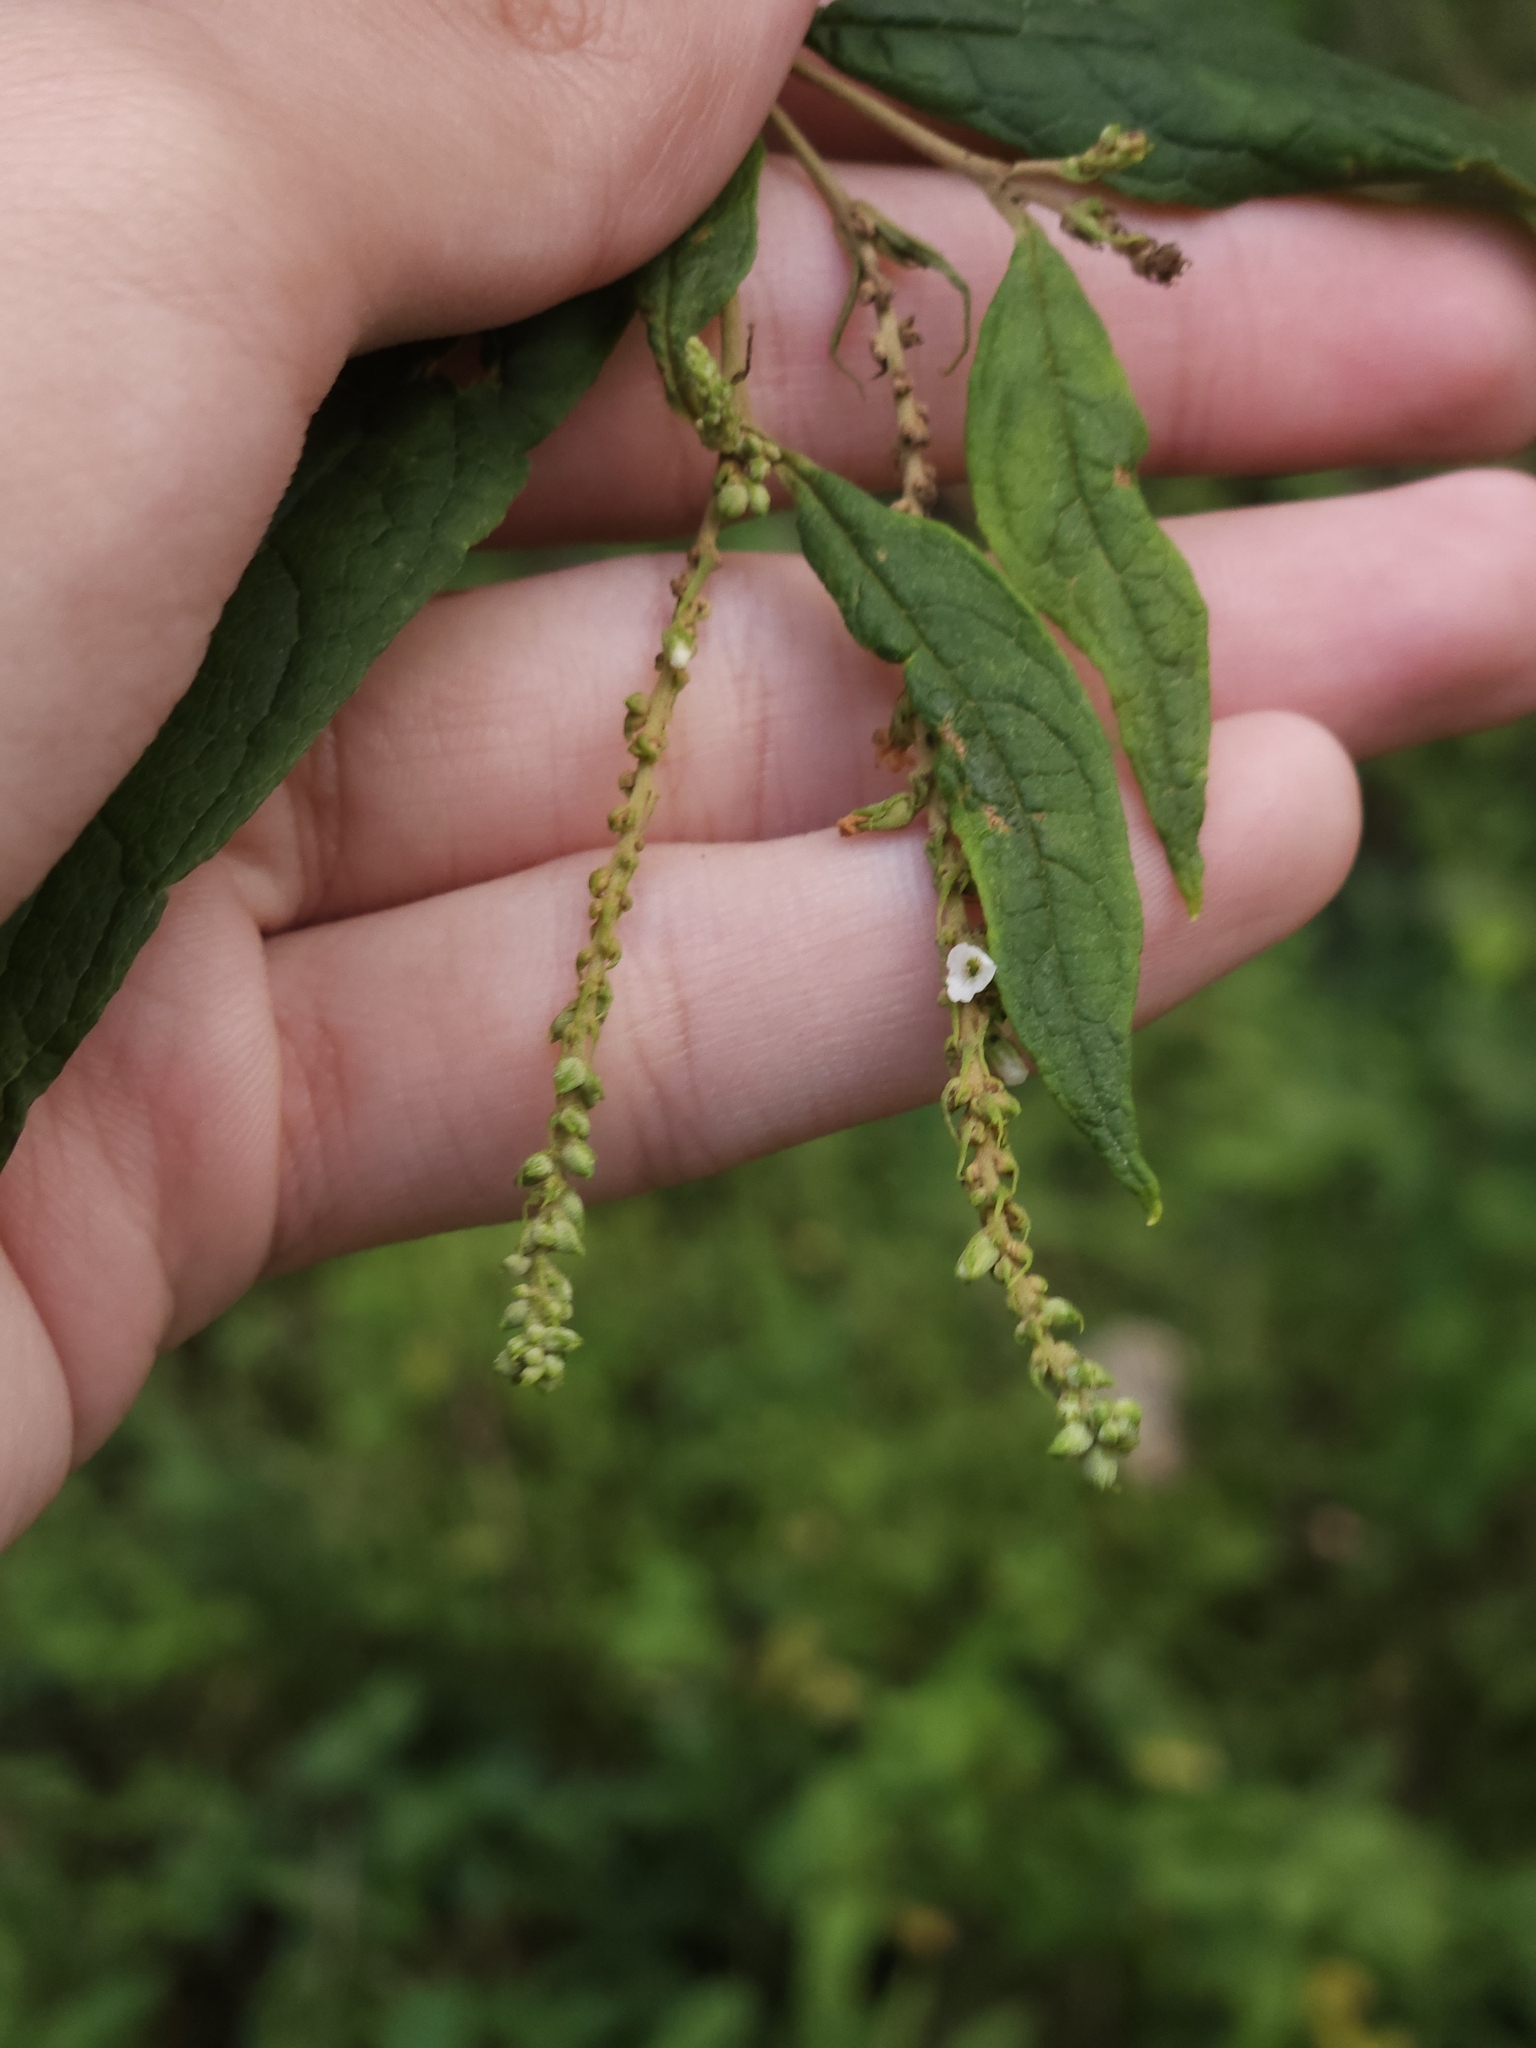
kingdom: Plantae
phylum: Tracheophyta
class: Magnoliopsida
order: Lamiales
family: Scrophulariaceae
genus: Buddleja
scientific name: Buddleja asiatica
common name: Dog tail
